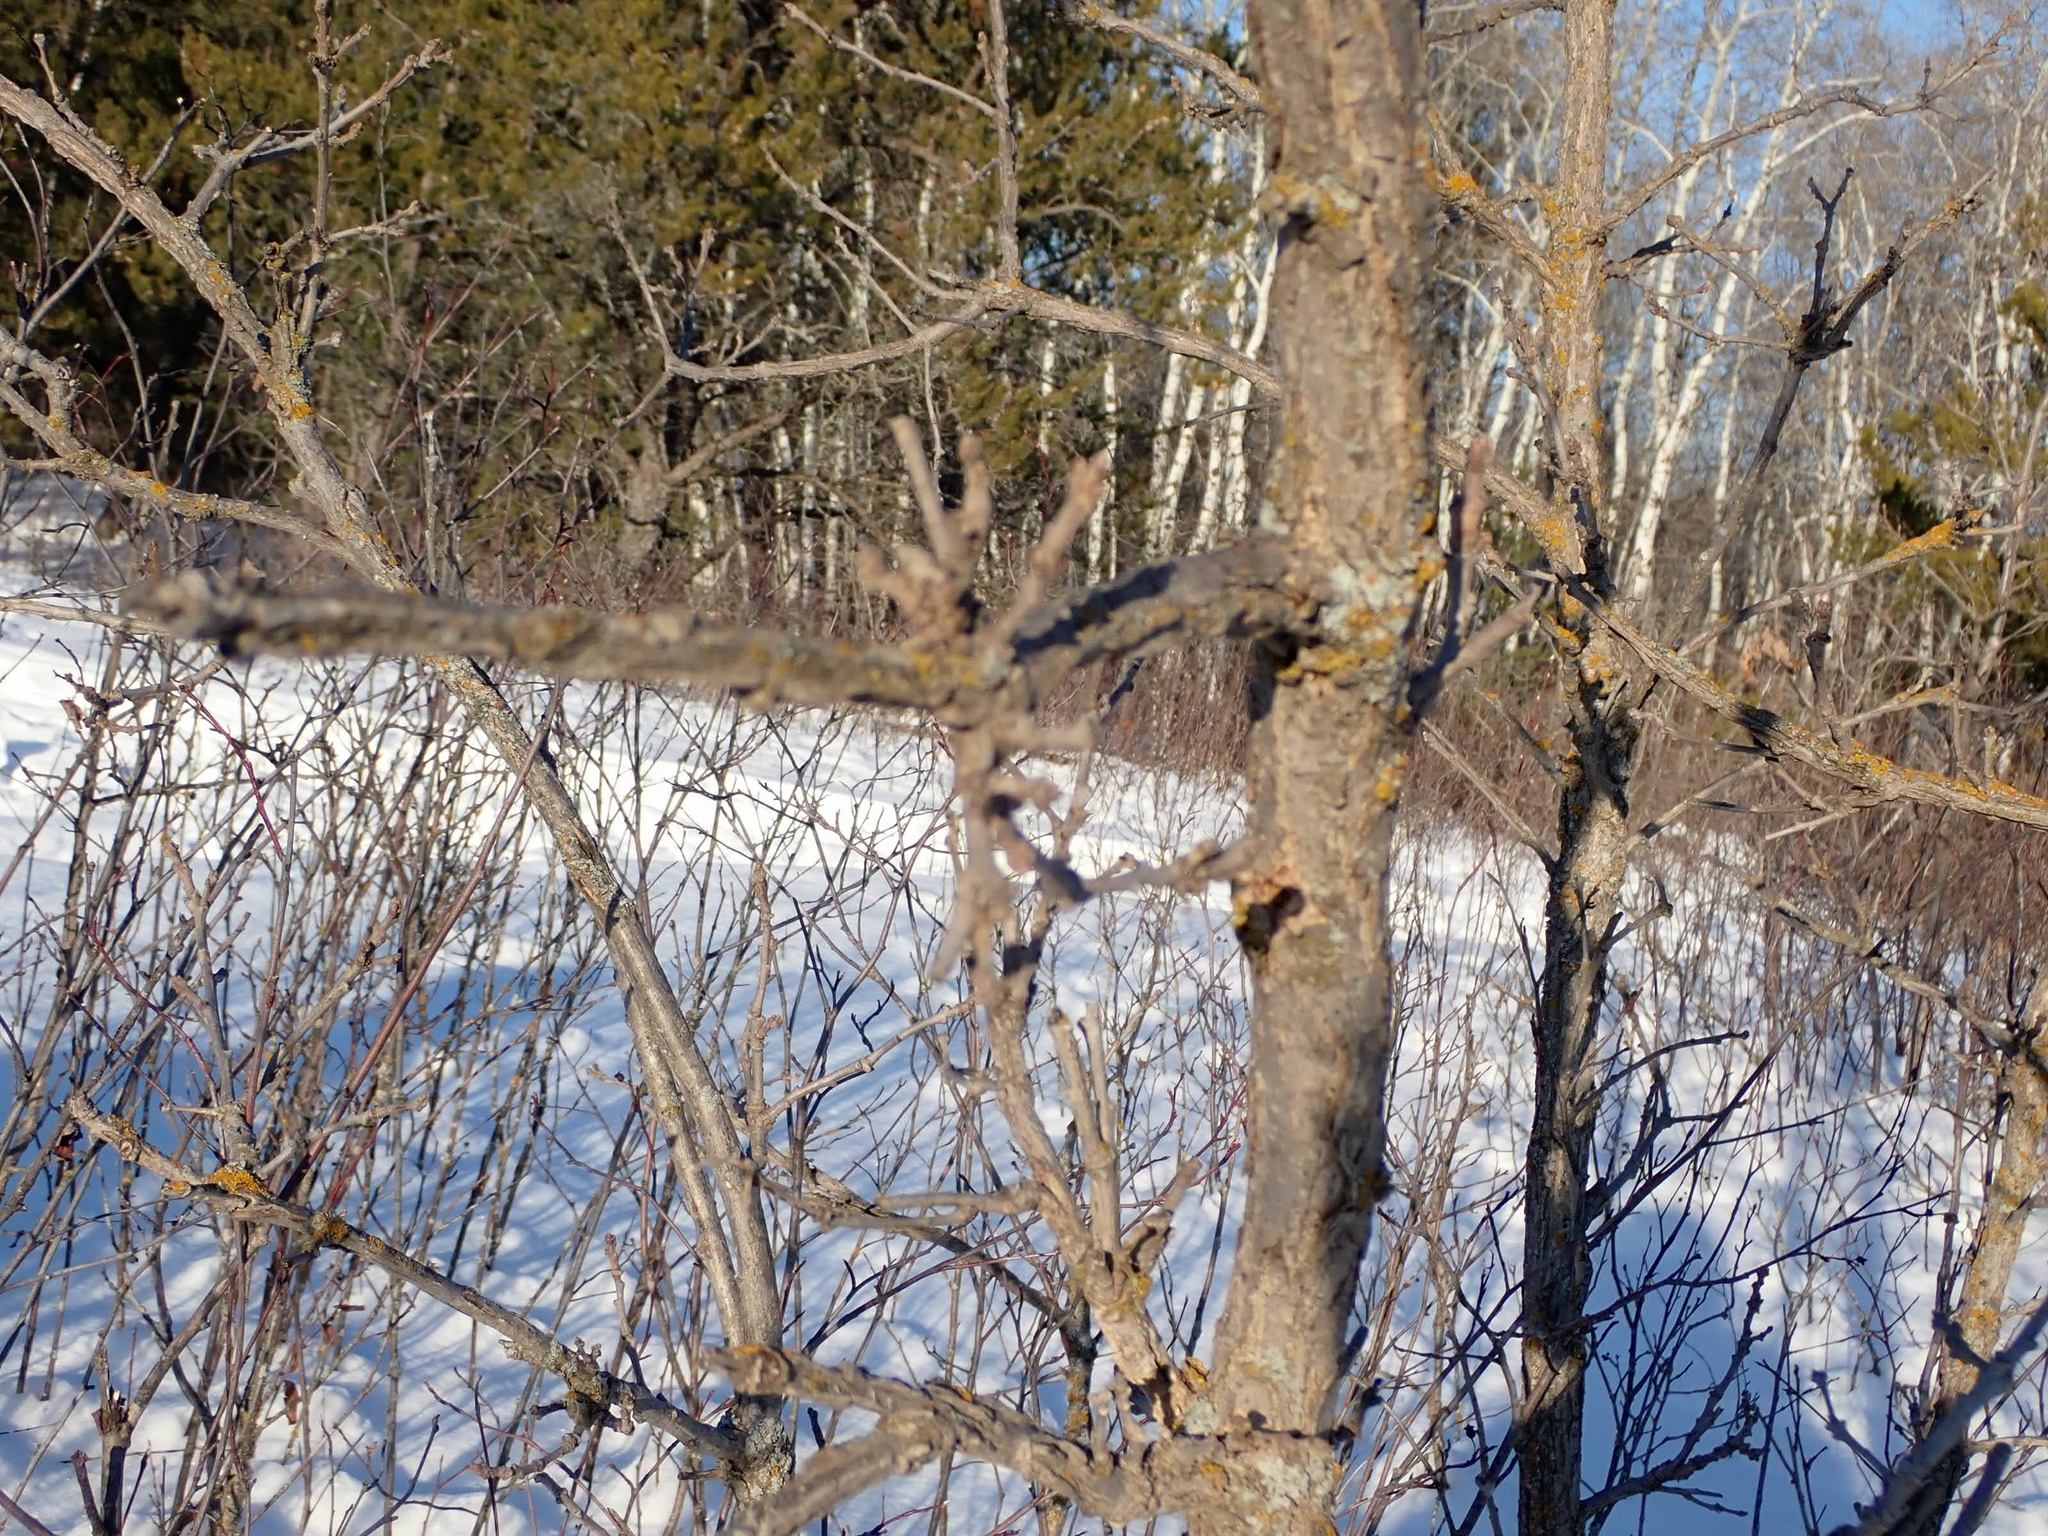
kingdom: Plantae
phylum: Tracheophyta
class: Magnoliopsida
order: Fagales
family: Fagaceae
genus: Quercus
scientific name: Quercus macrocarpa
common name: Bur oak
